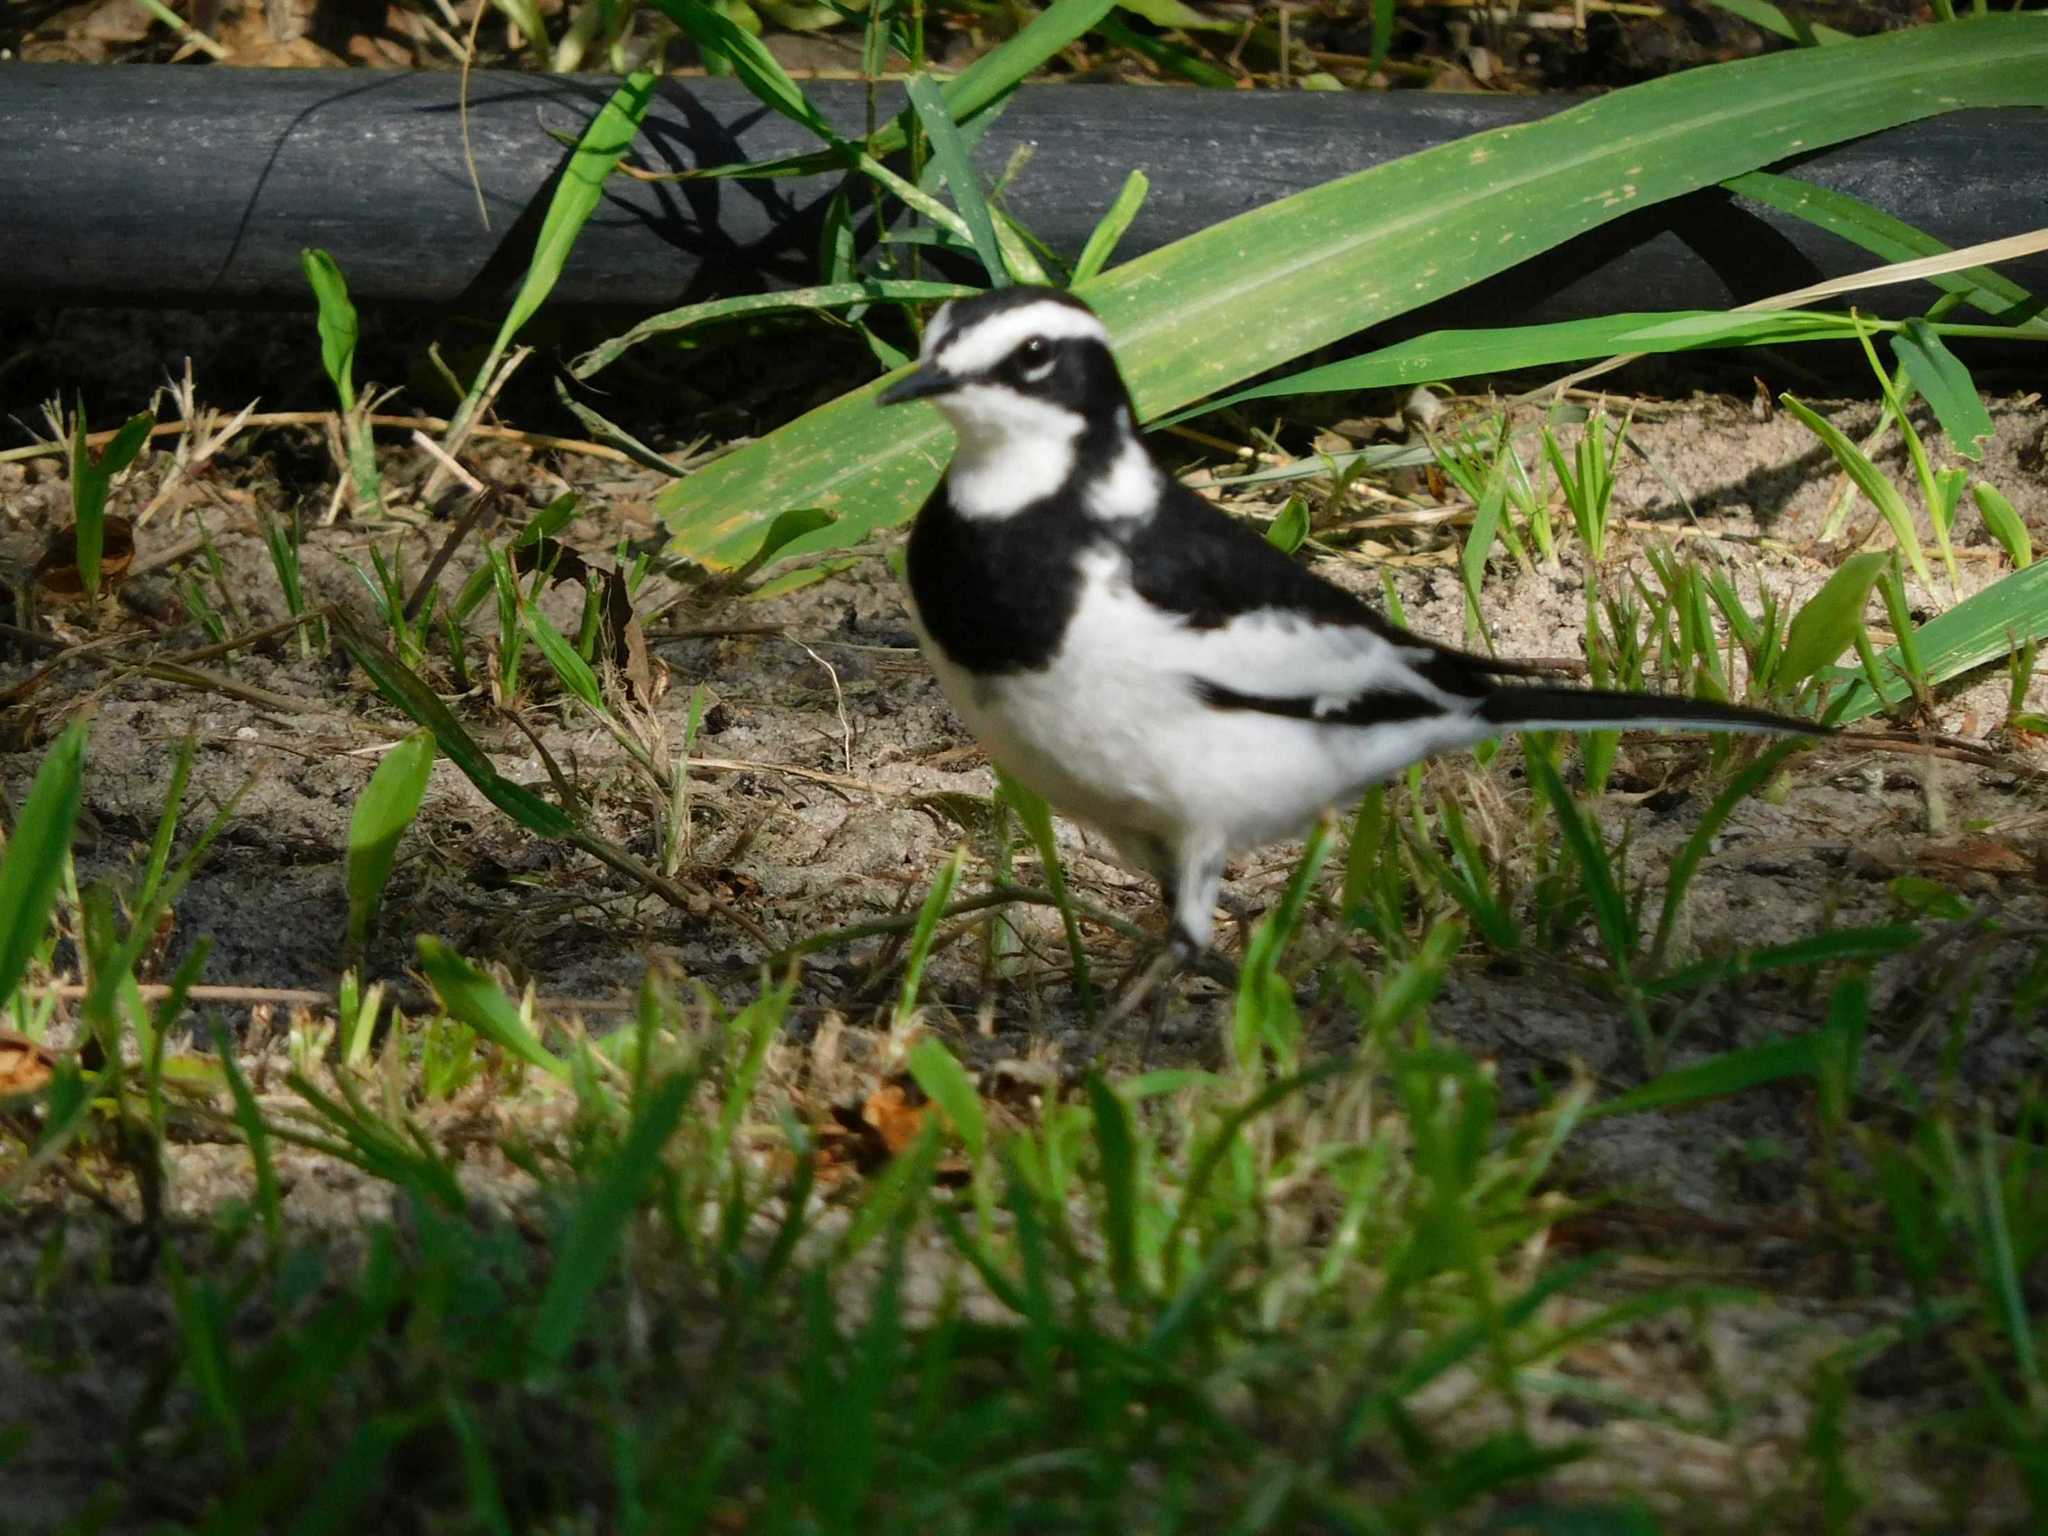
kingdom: Animalia
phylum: Chordata
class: Aves
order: Passeriformes
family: Motacillidae
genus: Motacilla
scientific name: Motacilla aguimp
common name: African pied wagtail
